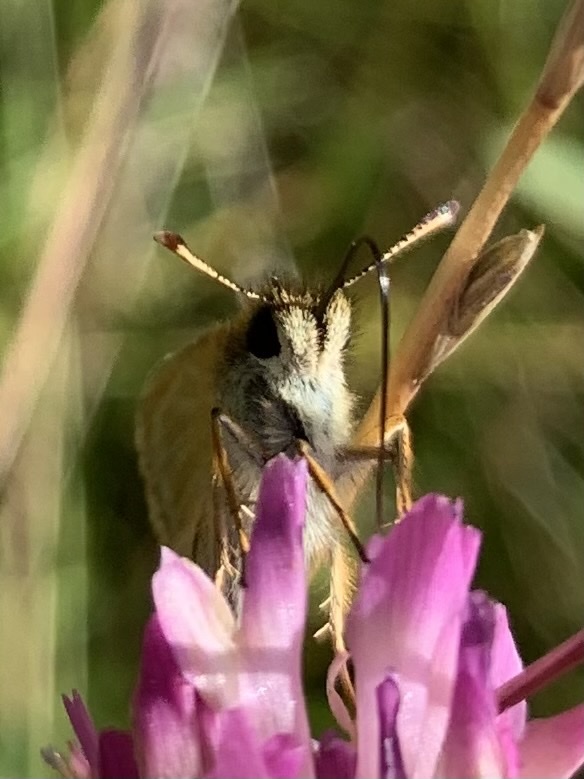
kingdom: Animalia
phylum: Arthropoda
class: Insecta
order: Lepidoptera
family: Hesperiidae
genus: Thymelicus
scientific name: Thymelicus lineola
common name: Essex skipper
